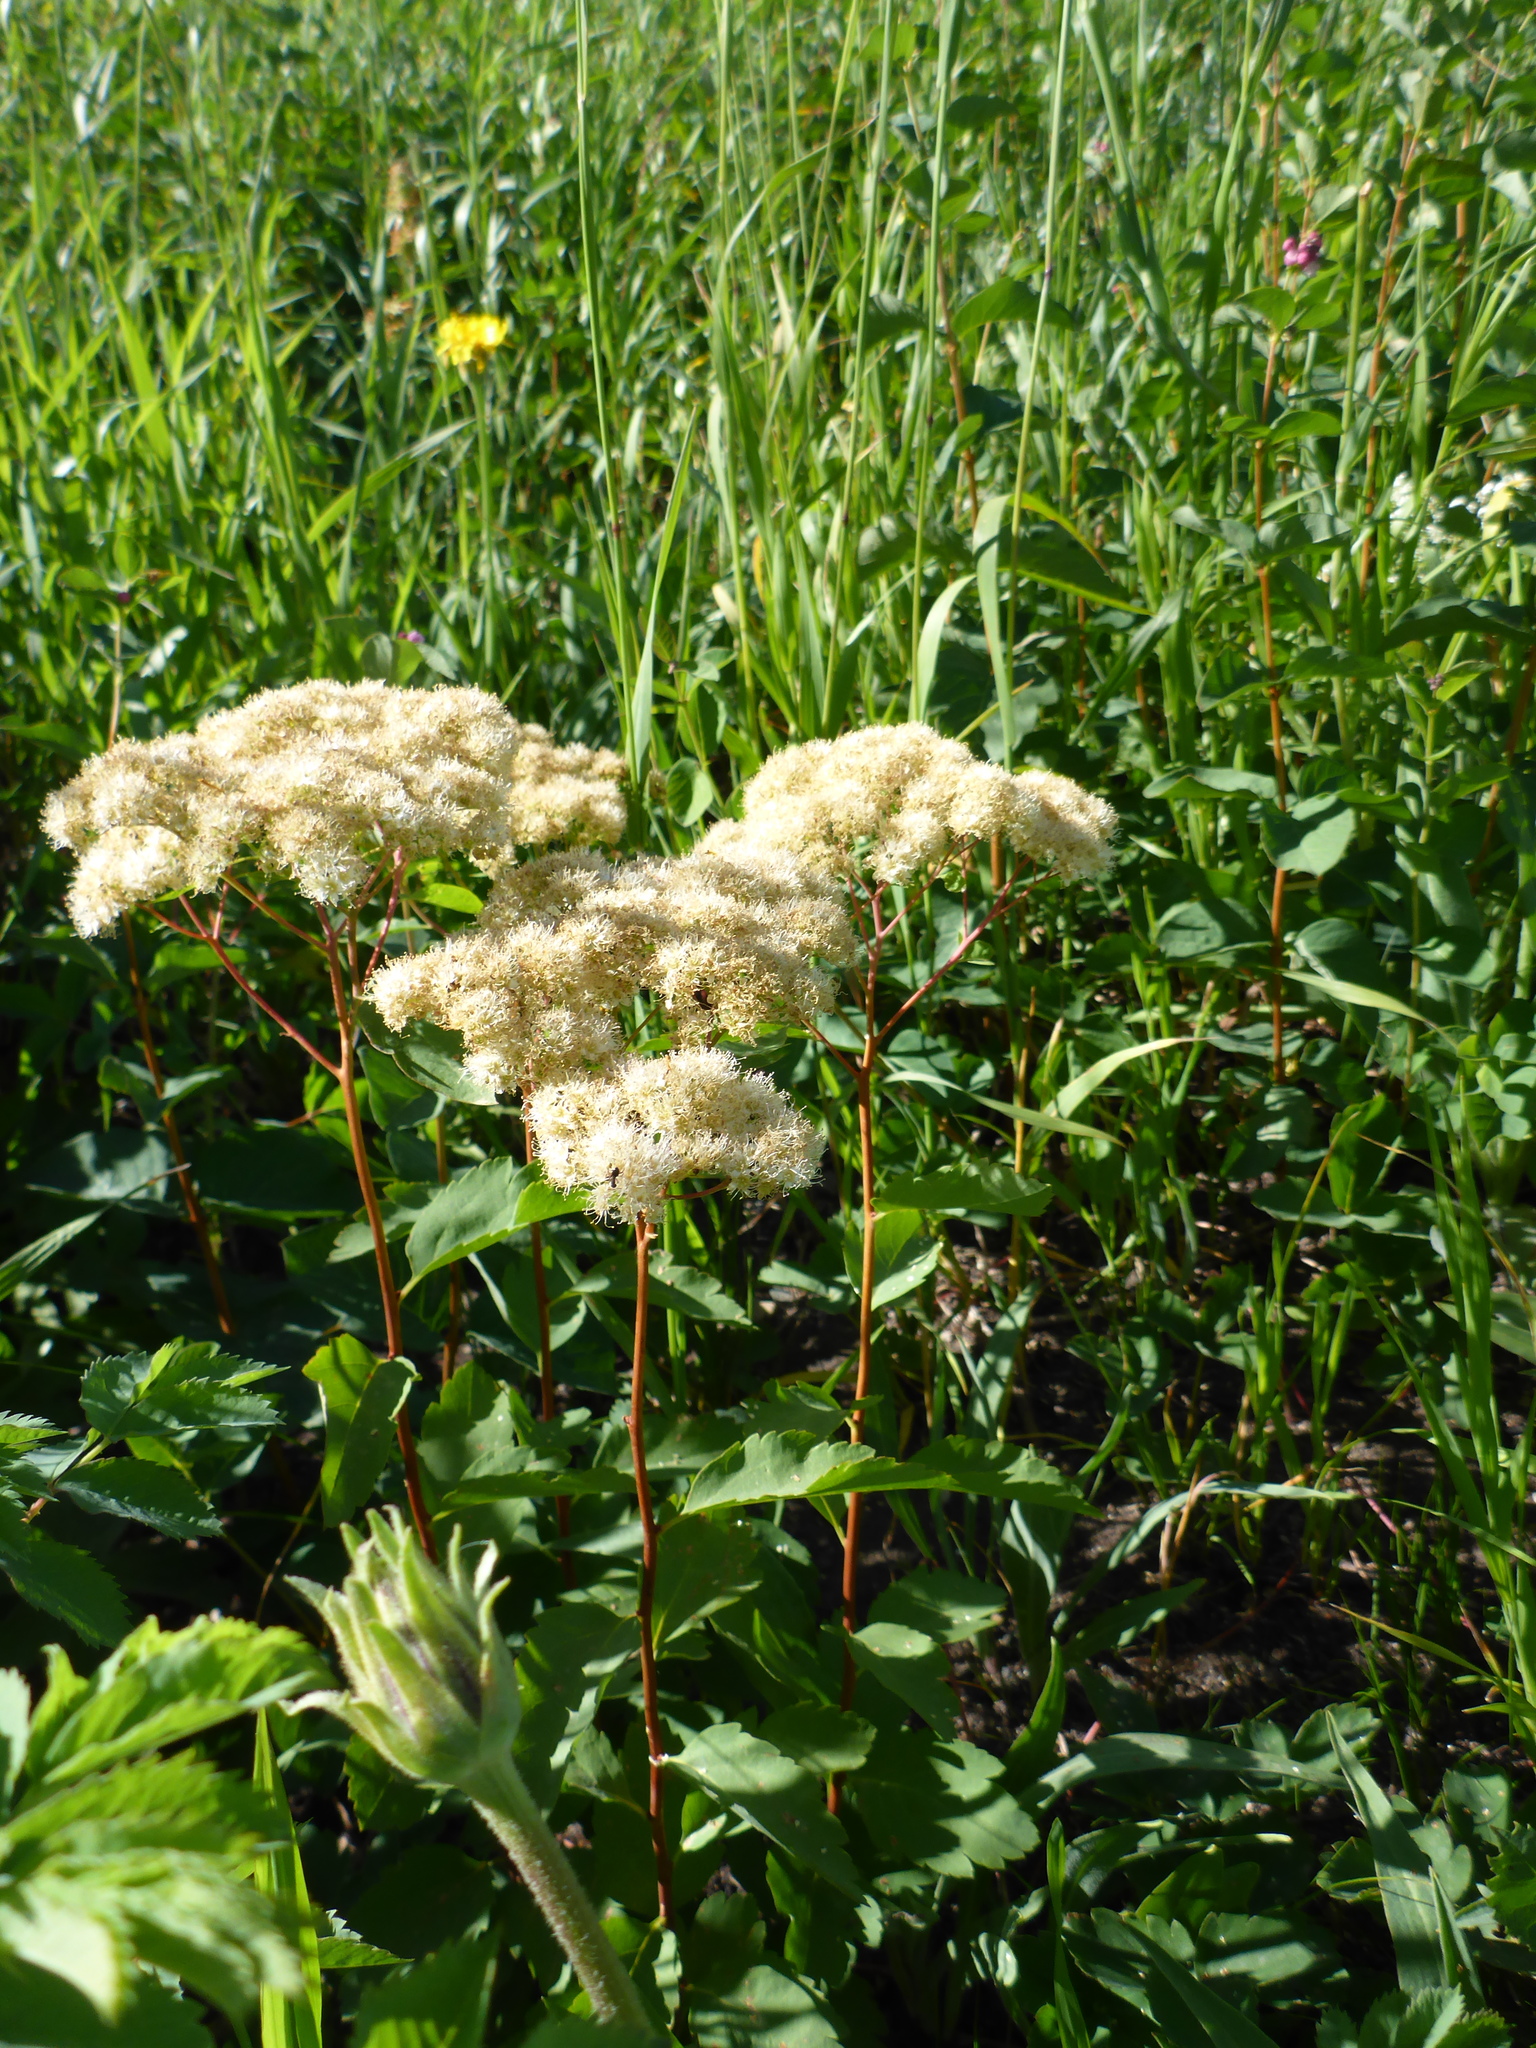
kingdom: Plantae
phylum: Tracheophyta
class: Magnoliopsida
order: Rosales
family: Rosaceae
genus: Spiraea
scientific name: Spiraea lucida
